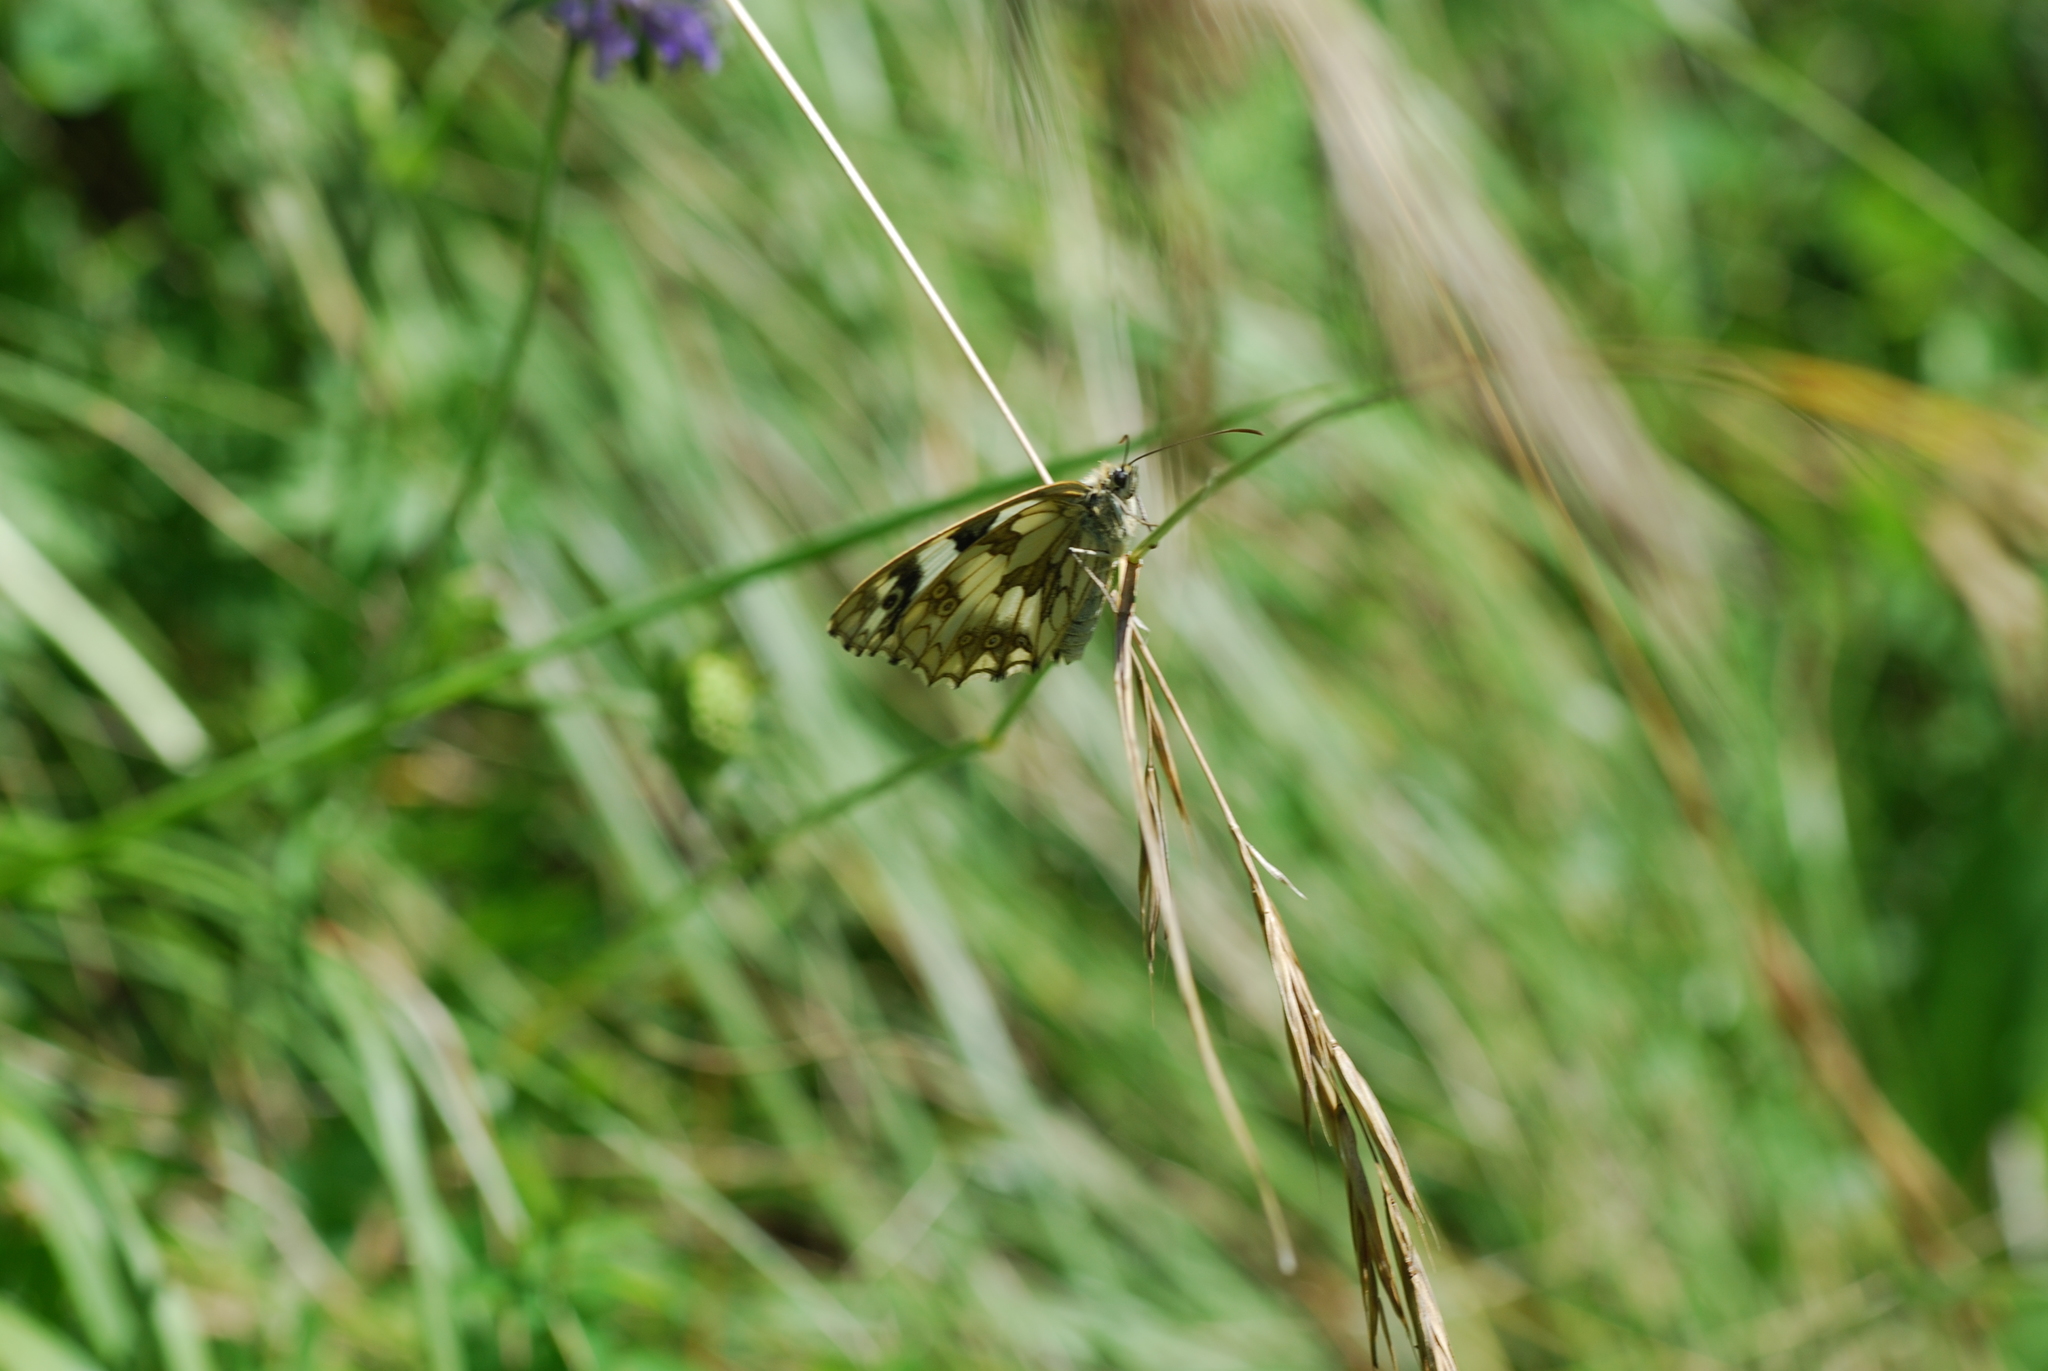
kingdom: Animalia
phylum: Arthropoda
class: Insecta
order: Lepidoptera
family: Nymphalidae
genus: Melanargia
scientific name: Melanargia galathea
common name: Marbled white
